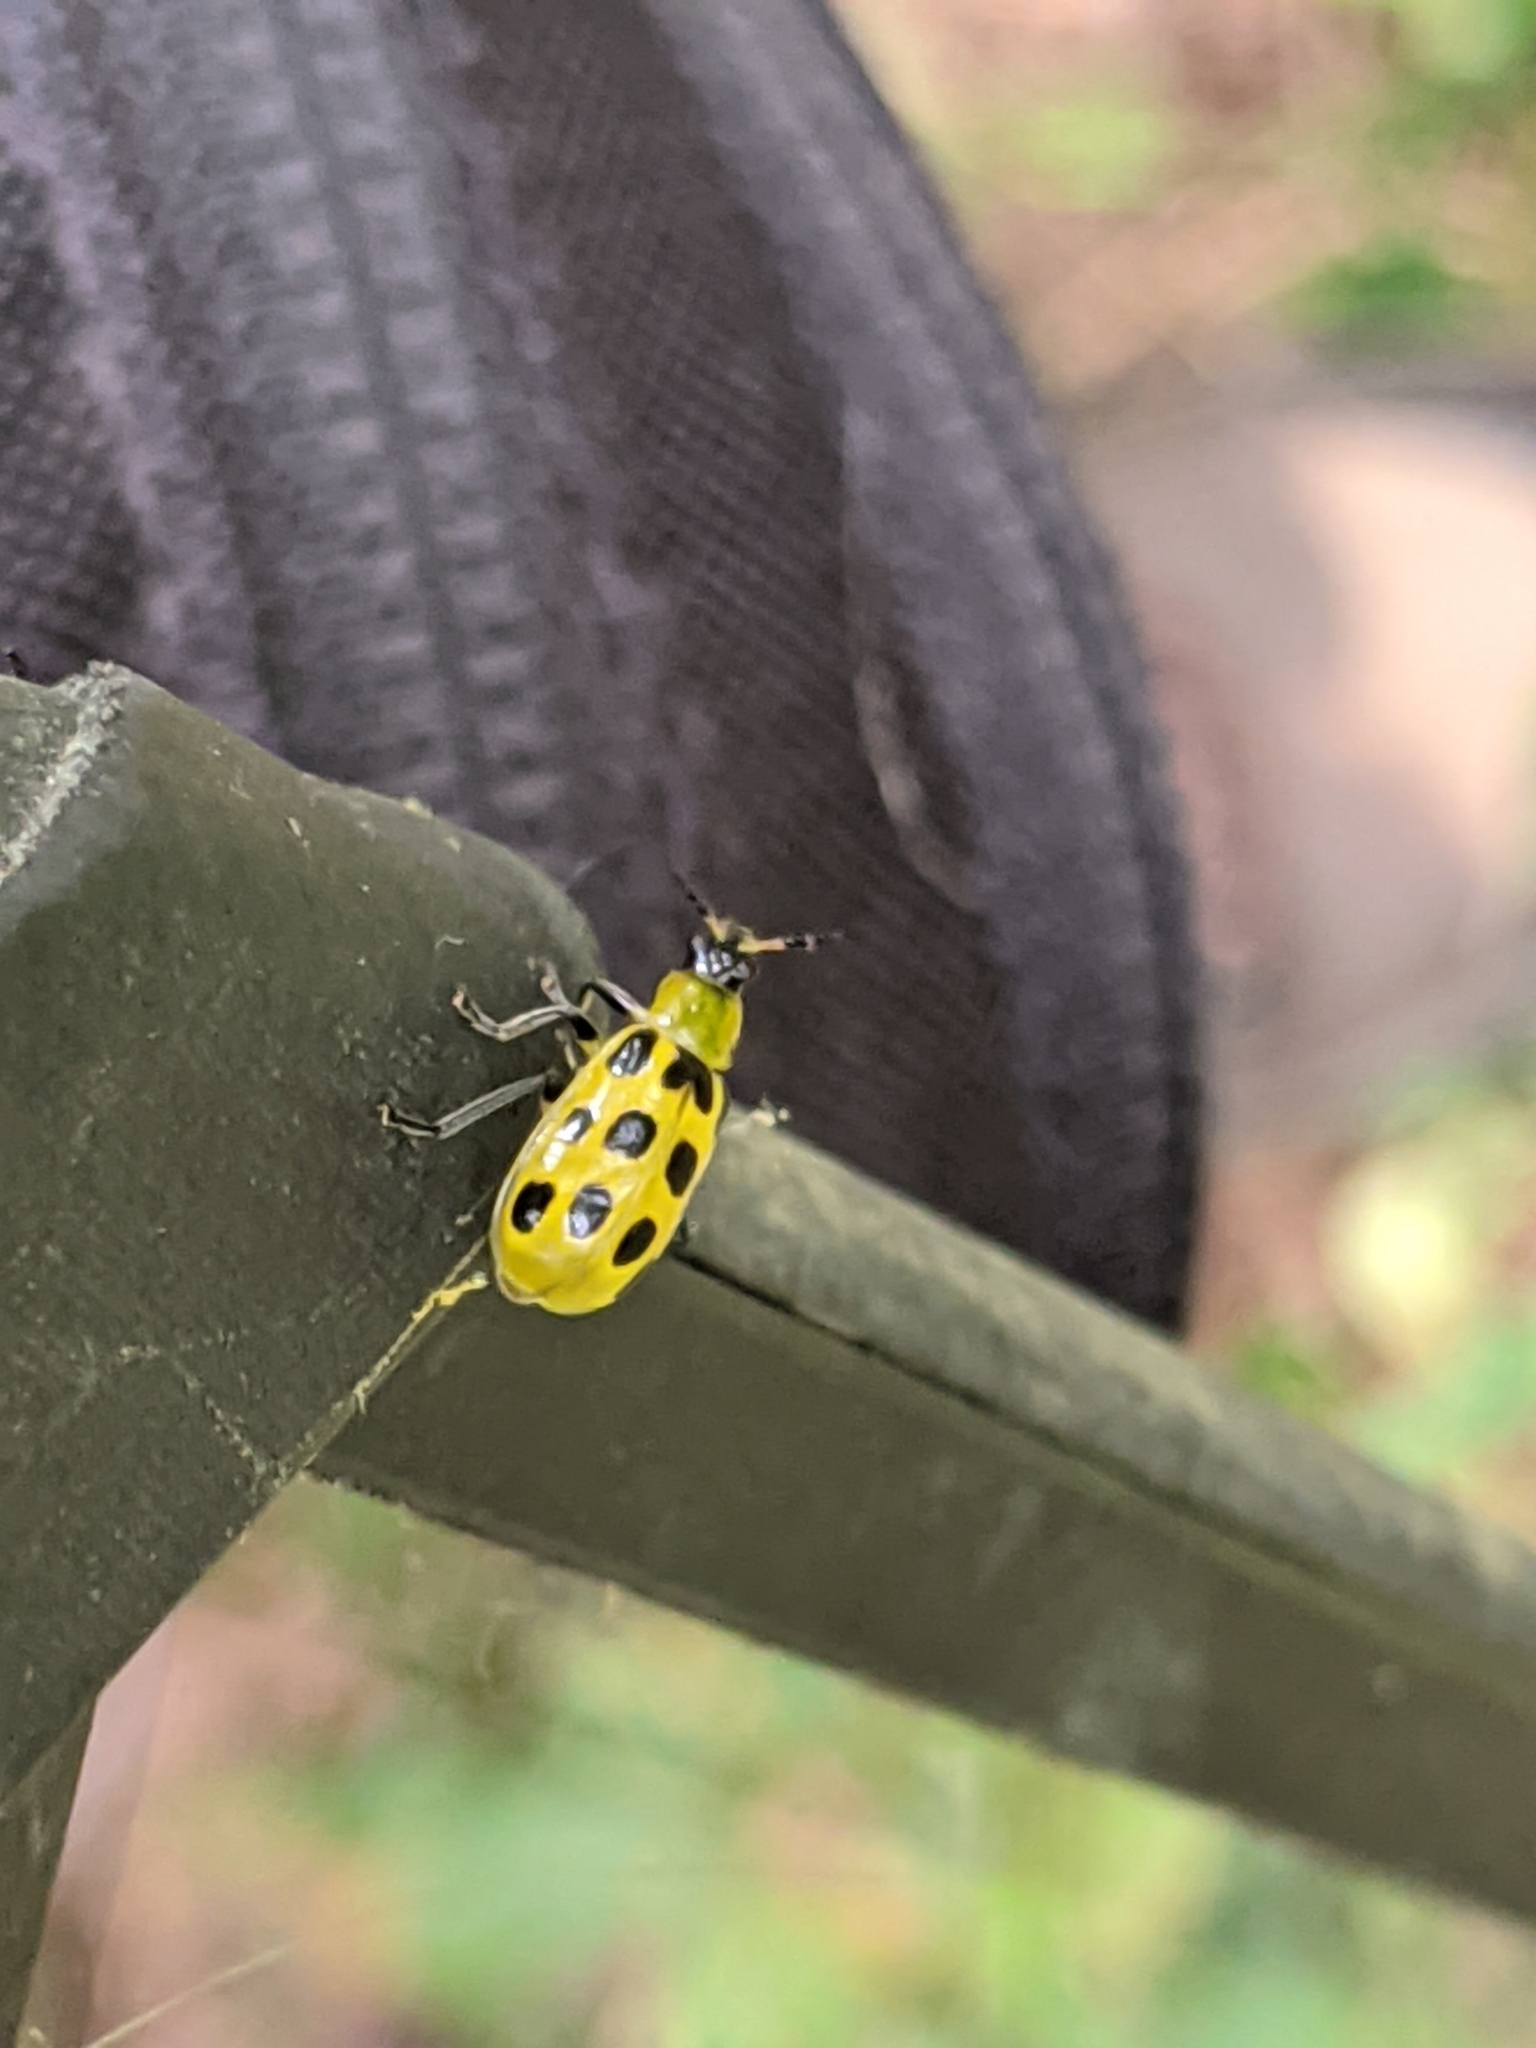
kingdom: Animalia
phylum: Arthropoda
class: Insecta
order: Coleoptera
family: Chrysomelidae
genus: Diabrotica
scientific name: Diabrotica undecimpunctata
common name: Spotted cucumber beetle
